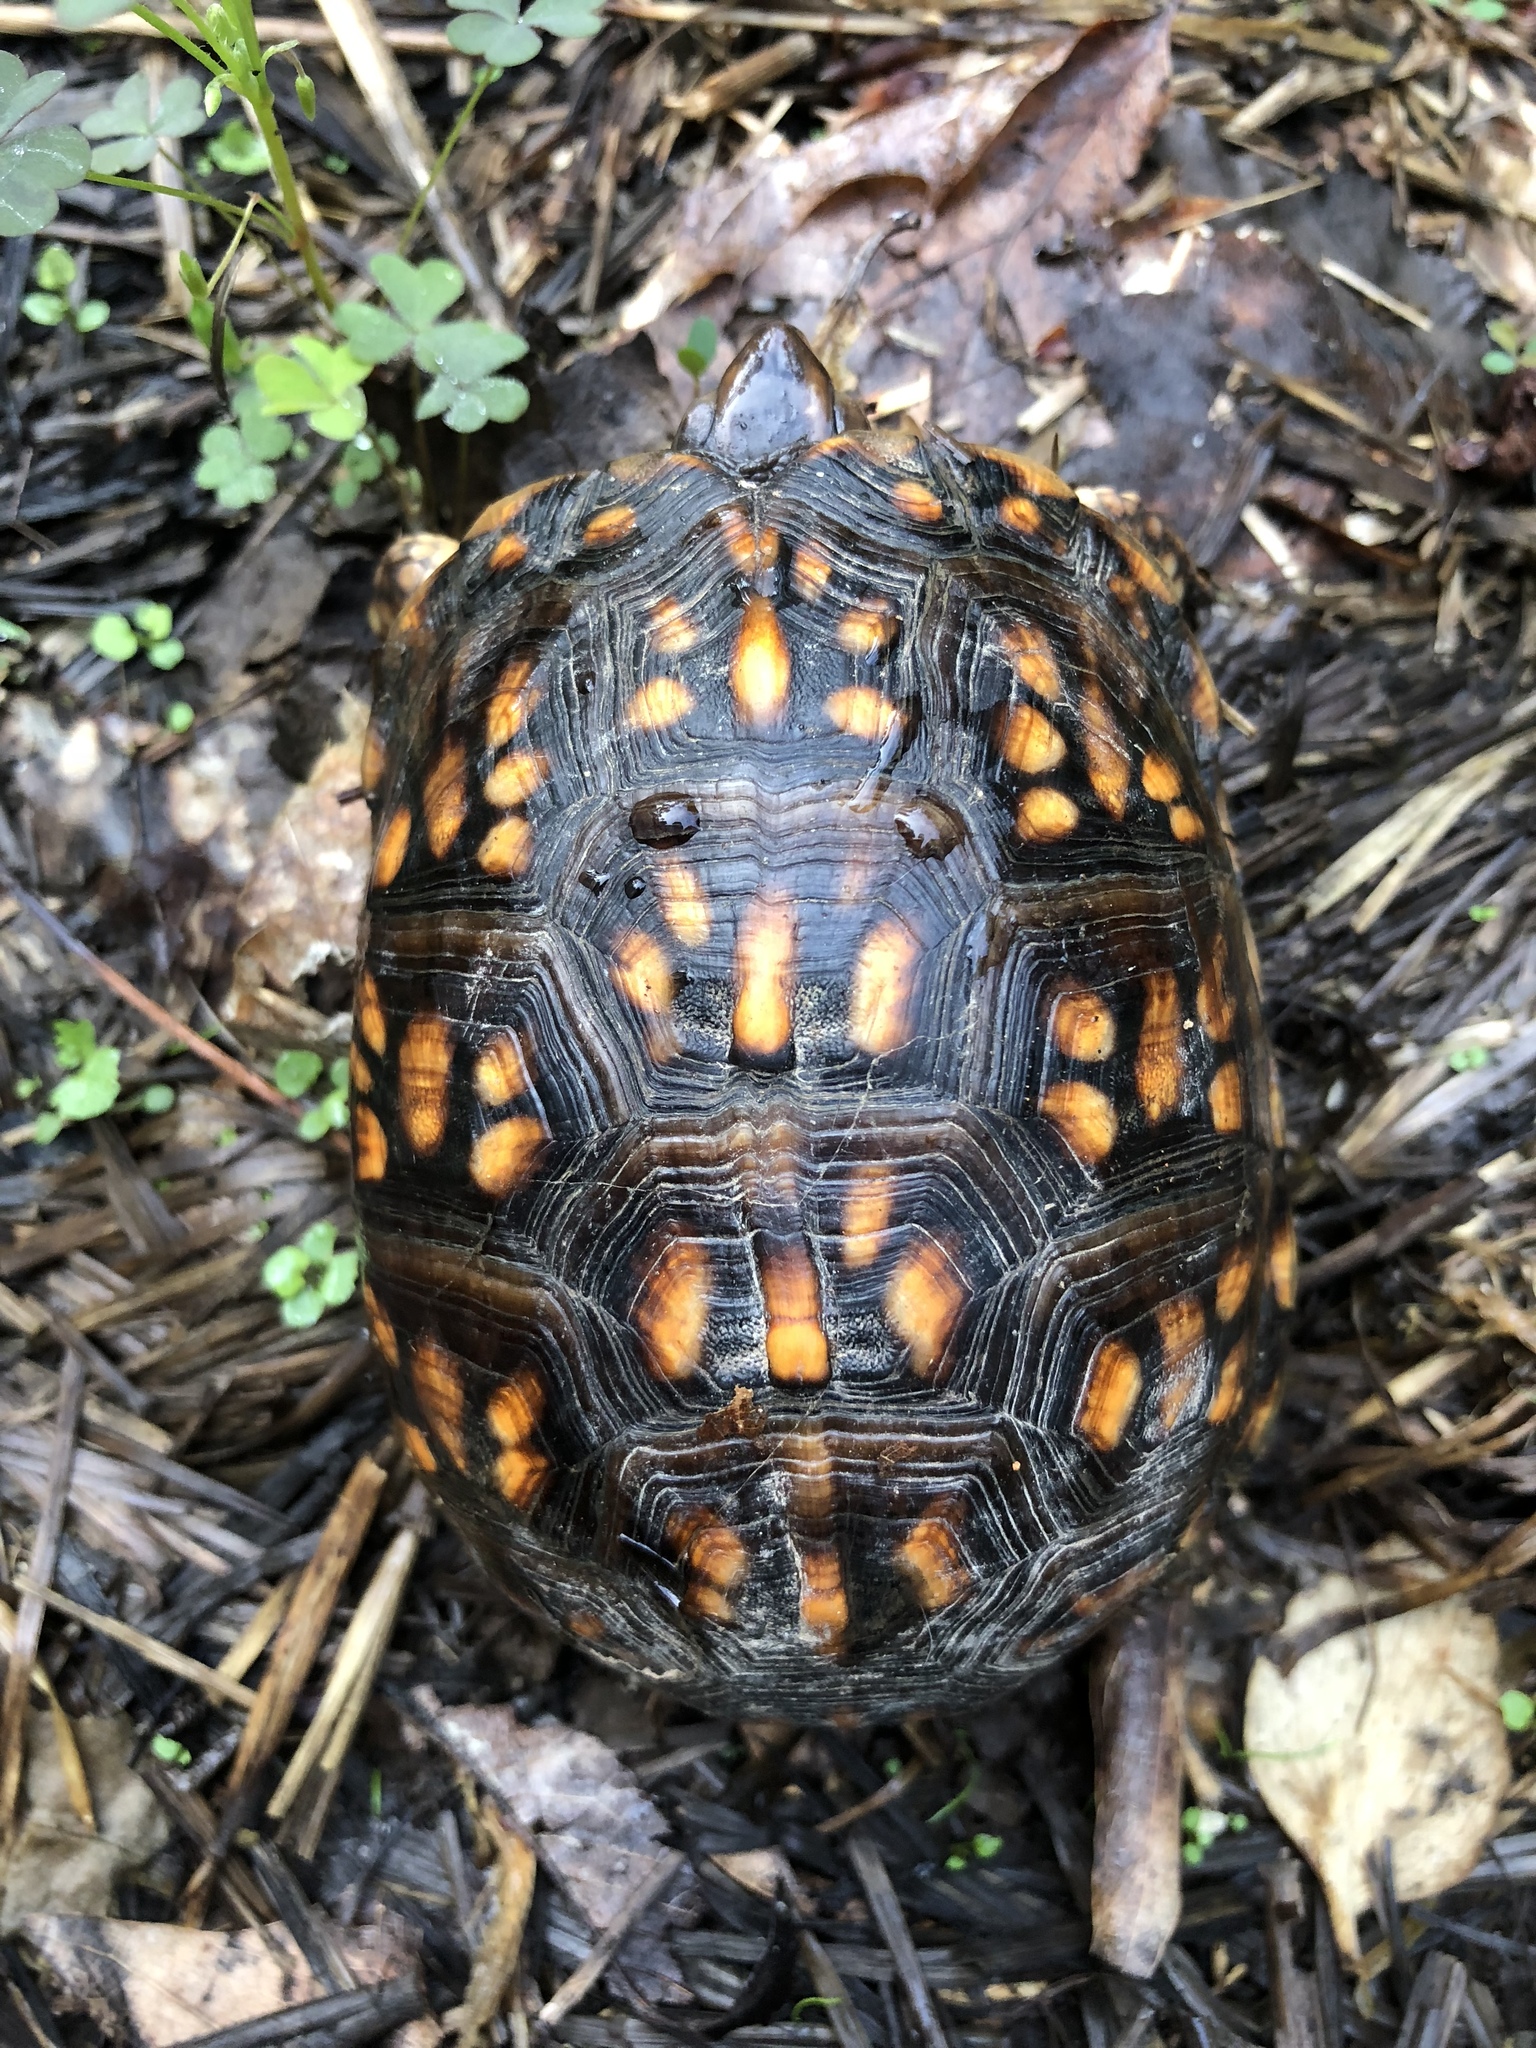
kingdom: Animalia
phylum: Chordata
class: Testudines
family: Emydidae
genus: Terrapene
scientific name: Terrapene carolina
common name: Common box turtle
